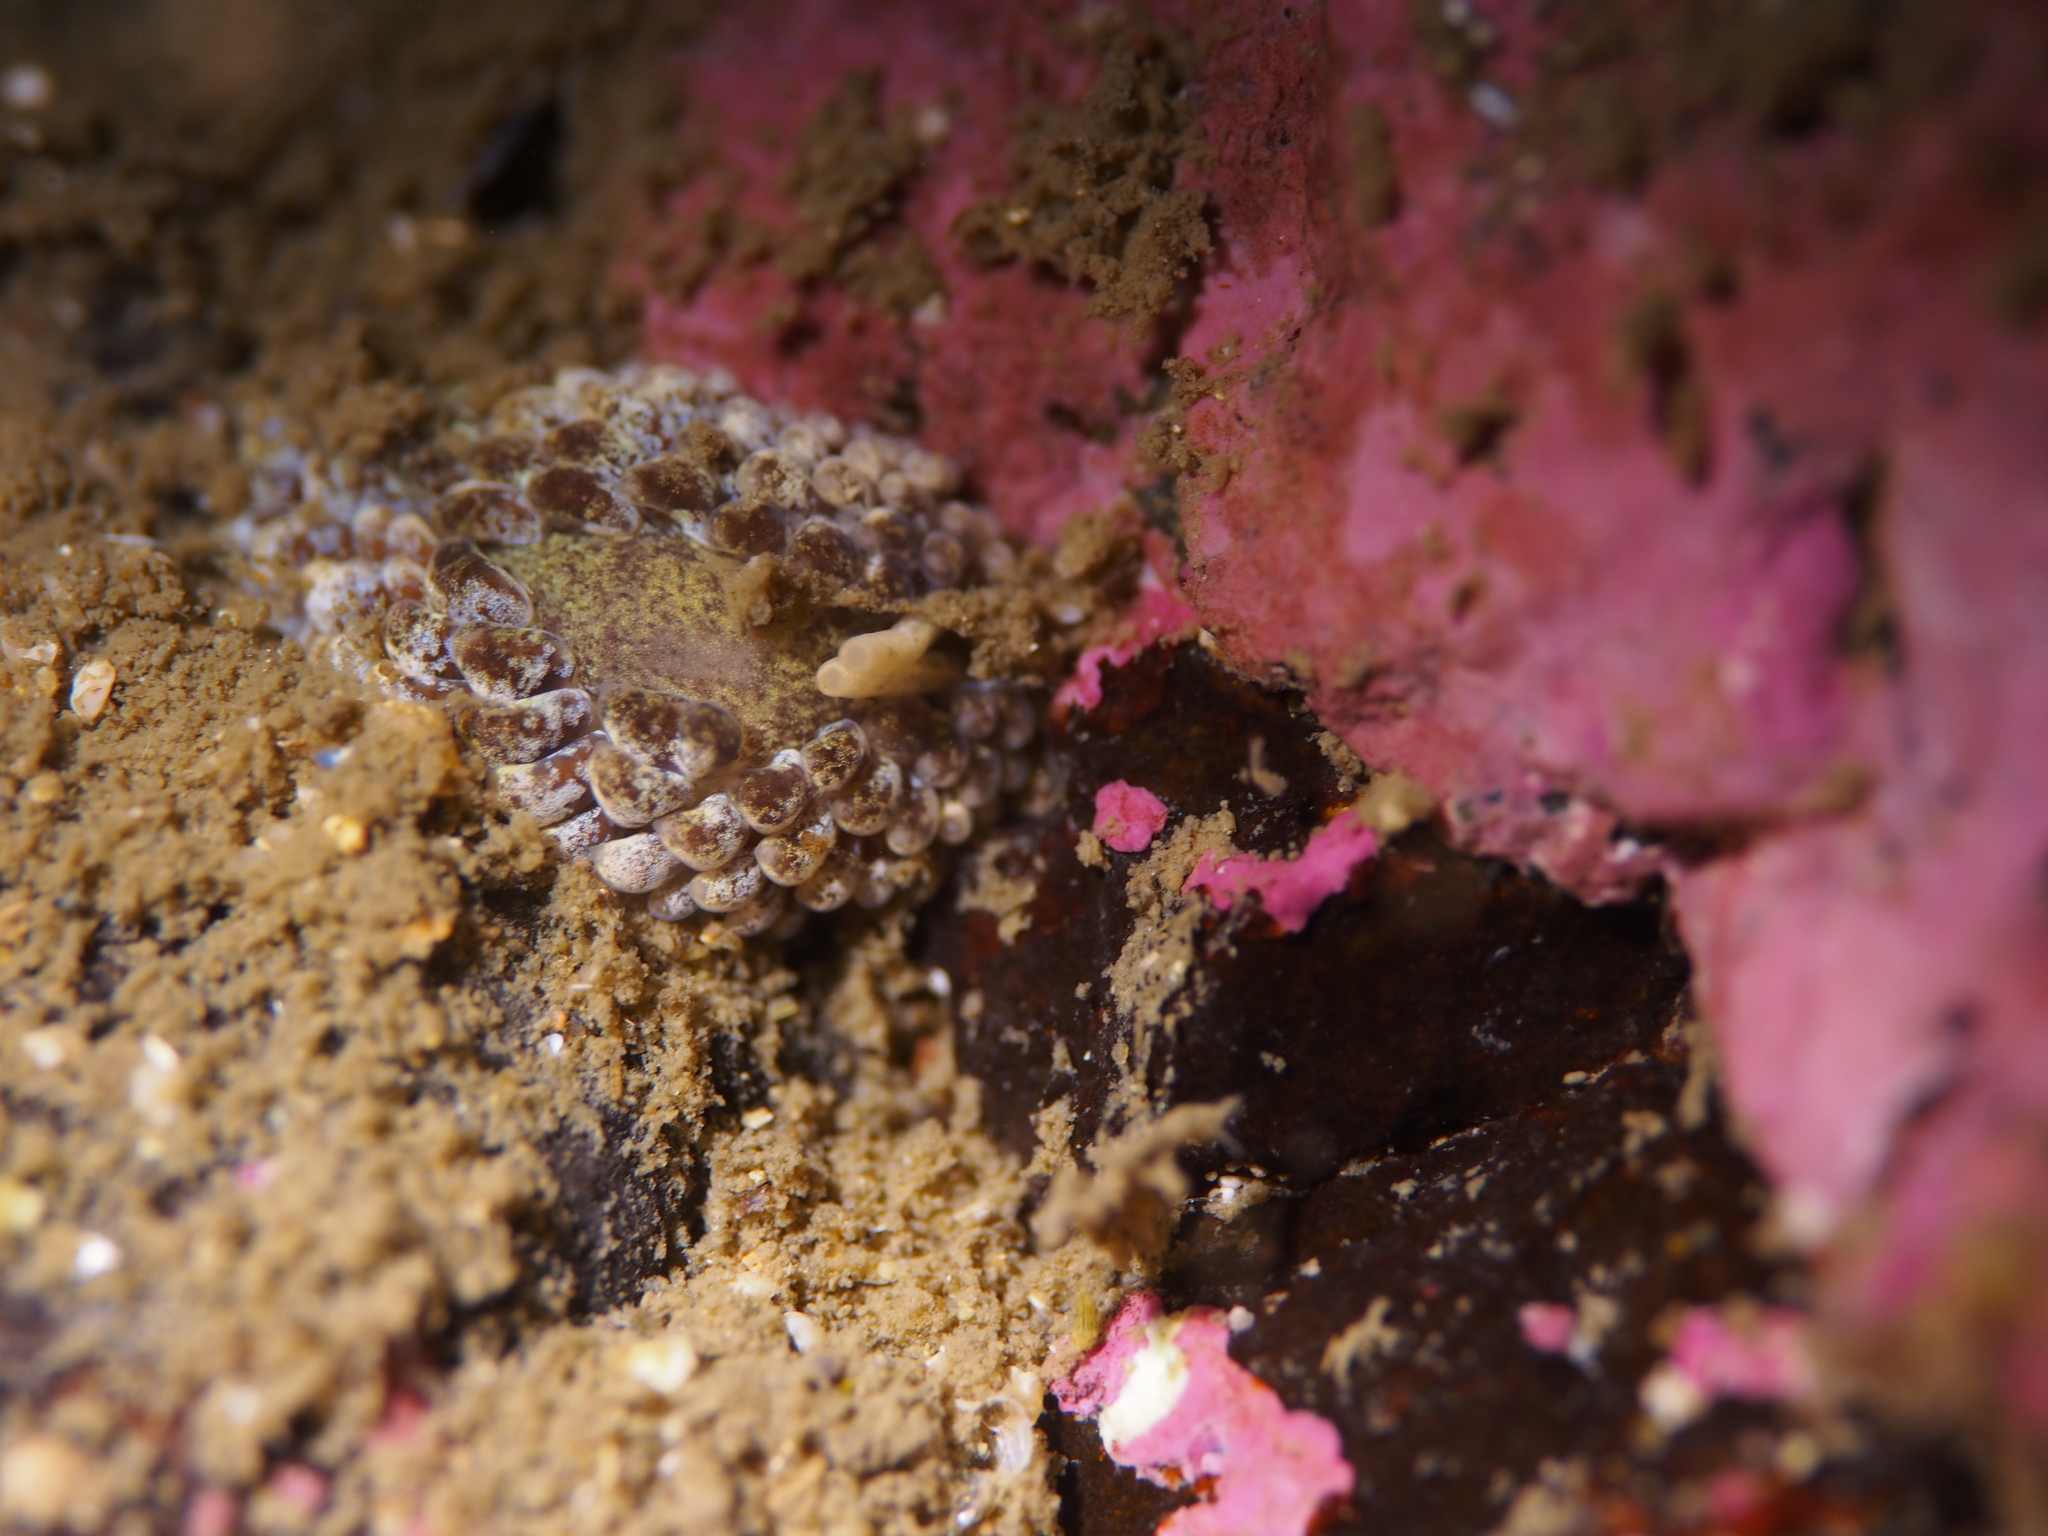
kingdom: Animalia
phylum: Mollusca
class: Gastropoda
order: Nudibranchia
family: Aeolidiidae
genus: Aeolidia
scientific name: Aeolidia papillosa
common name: Common grey sea slug
